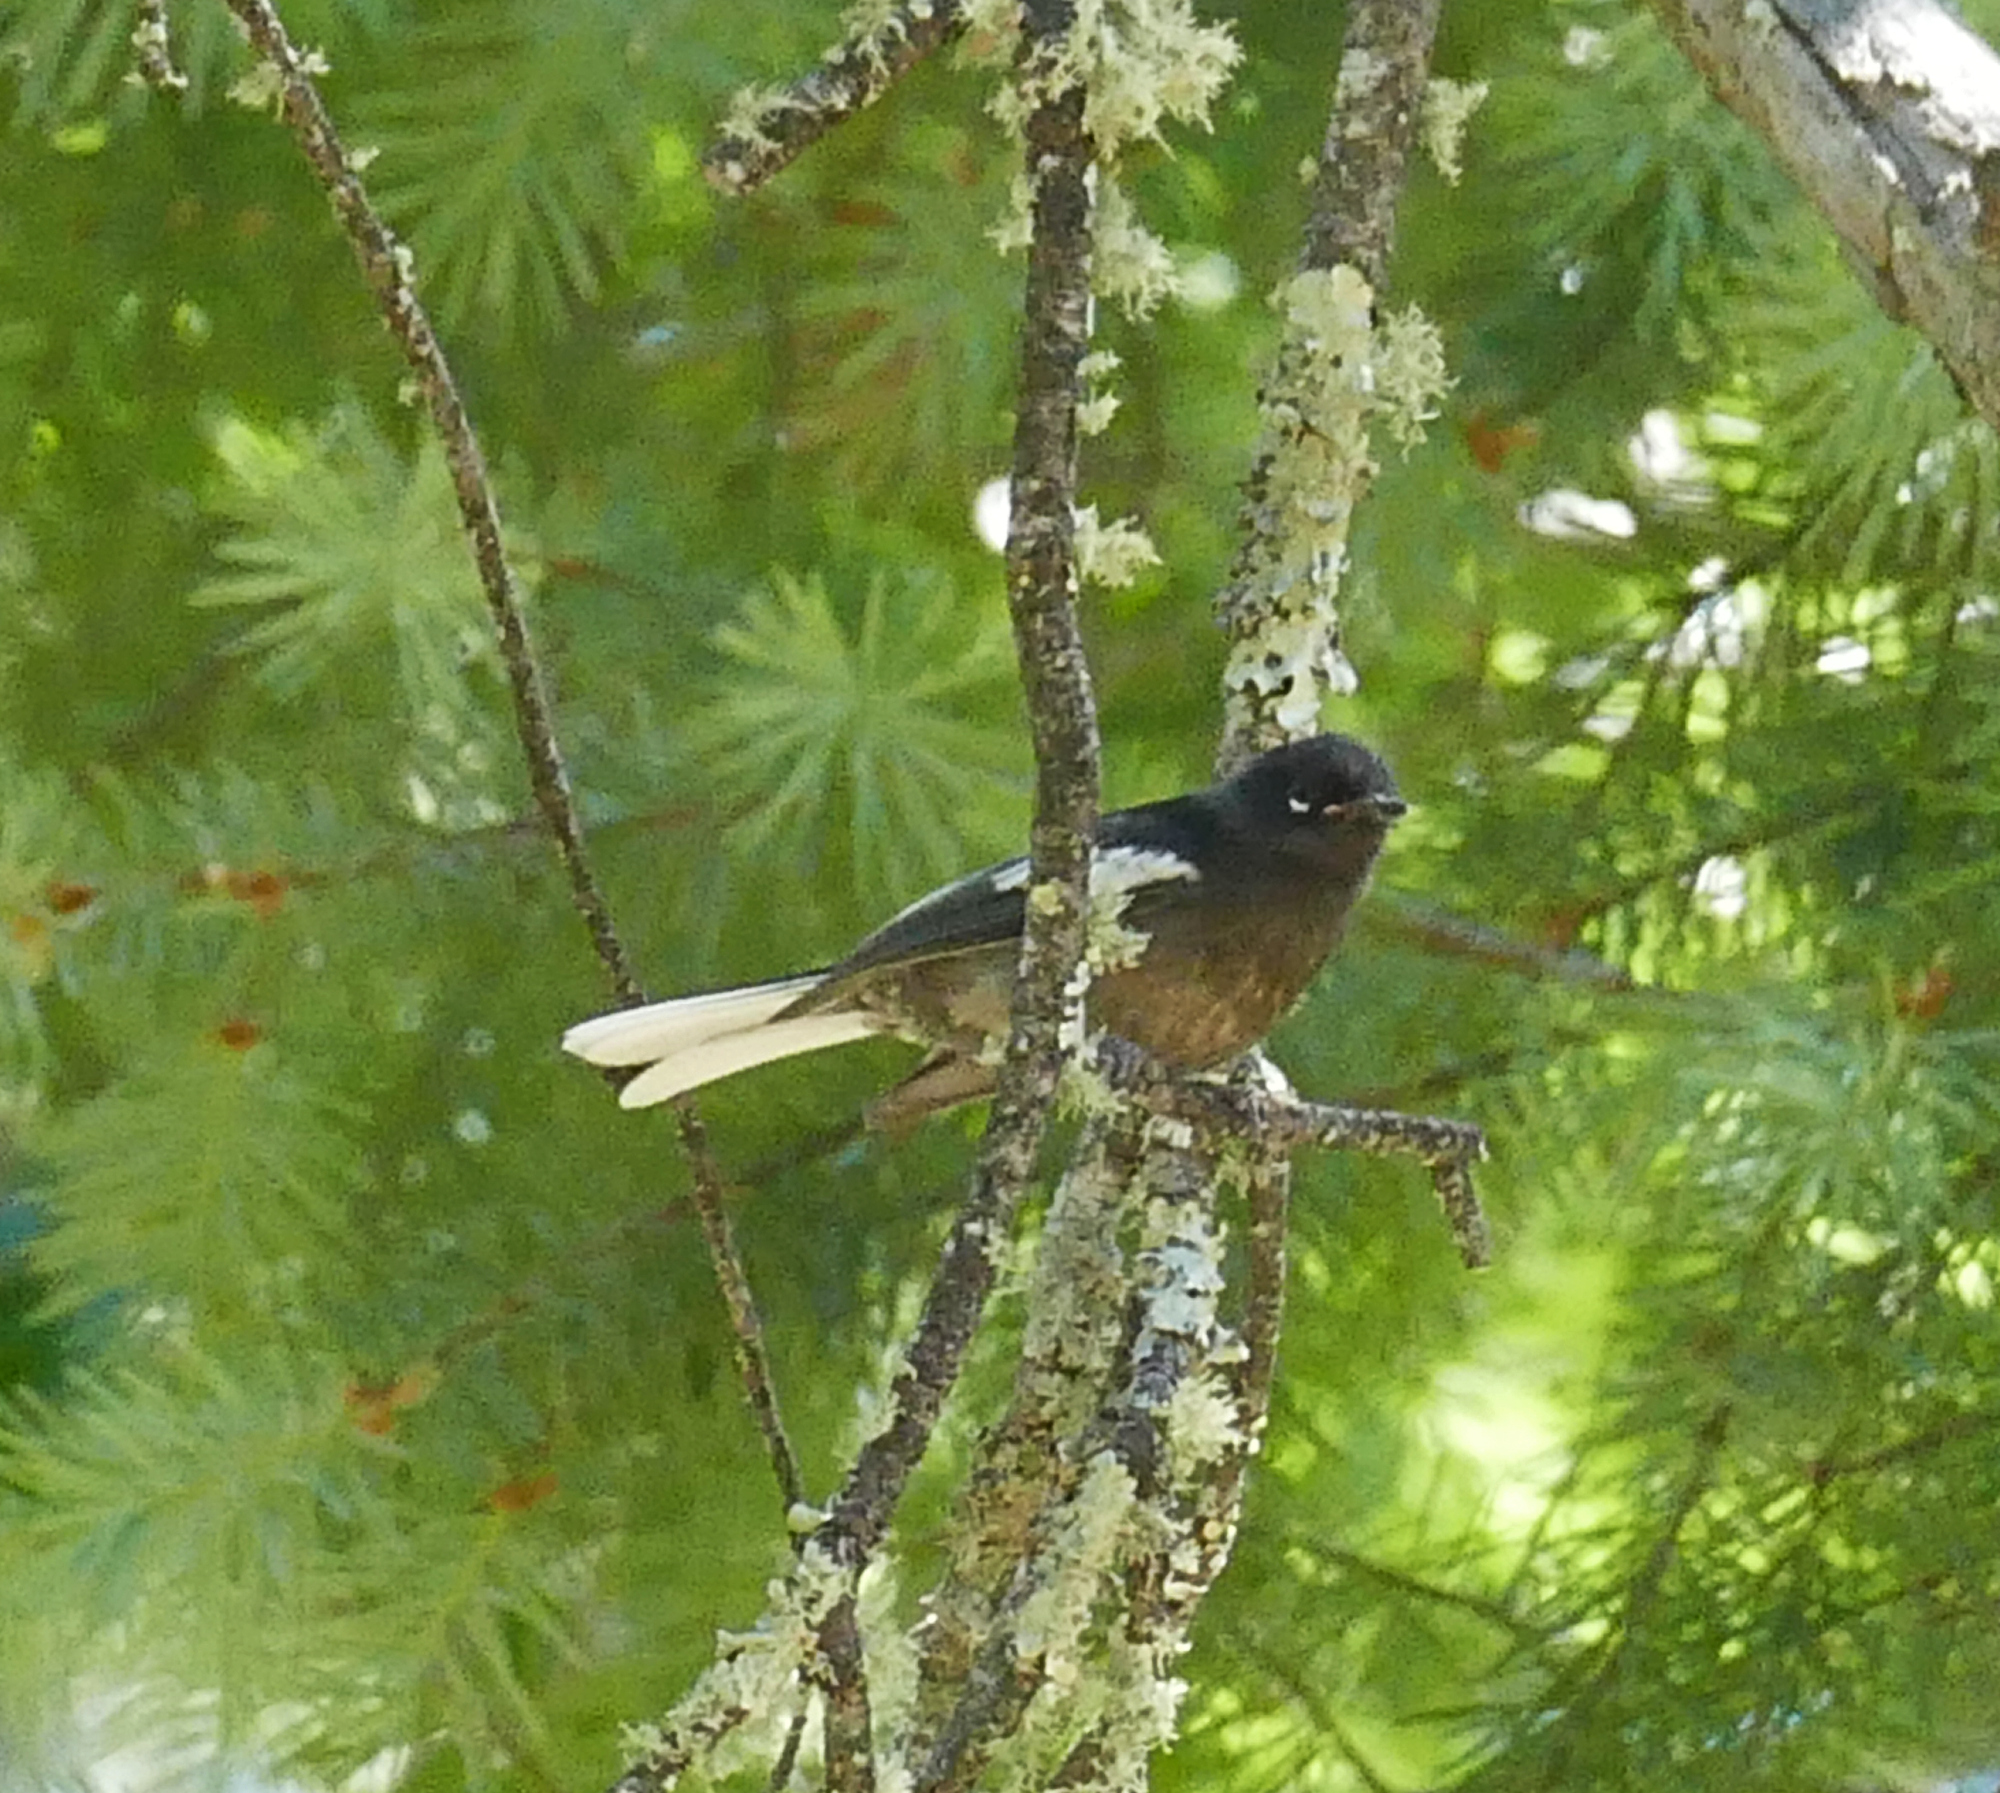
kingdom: Animalia
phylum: Chordata
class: Aves
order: Passeriformes
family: Parulidae
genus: Myioborus
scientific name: Myioborus pictus
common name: Painted whitestart
